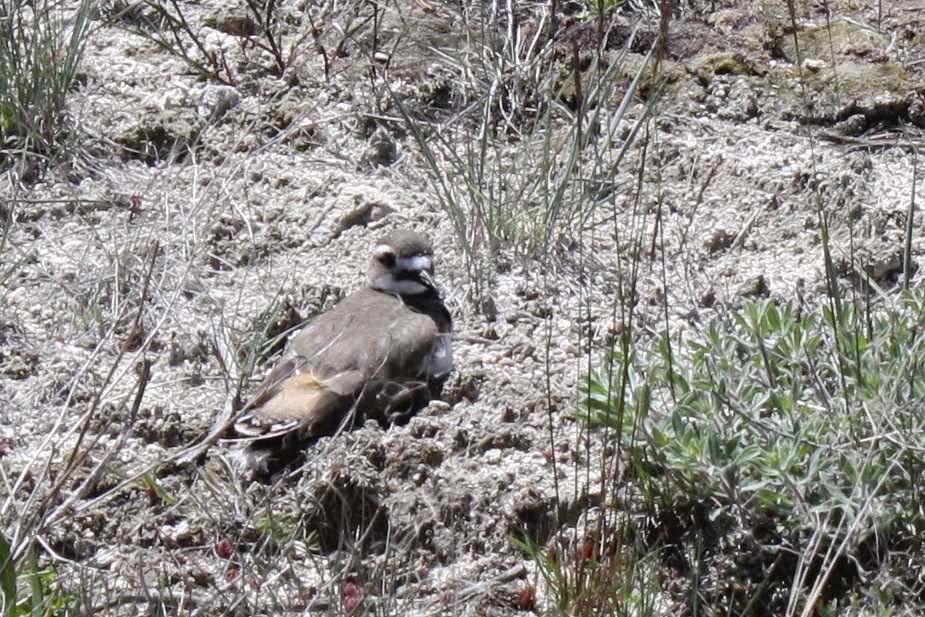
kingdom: Animalia
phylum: Chordata
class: Aves
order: Charadriiformes
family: Charadriidae
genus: Charadrius
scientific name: Charadrius vociferus
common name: Killdeer
